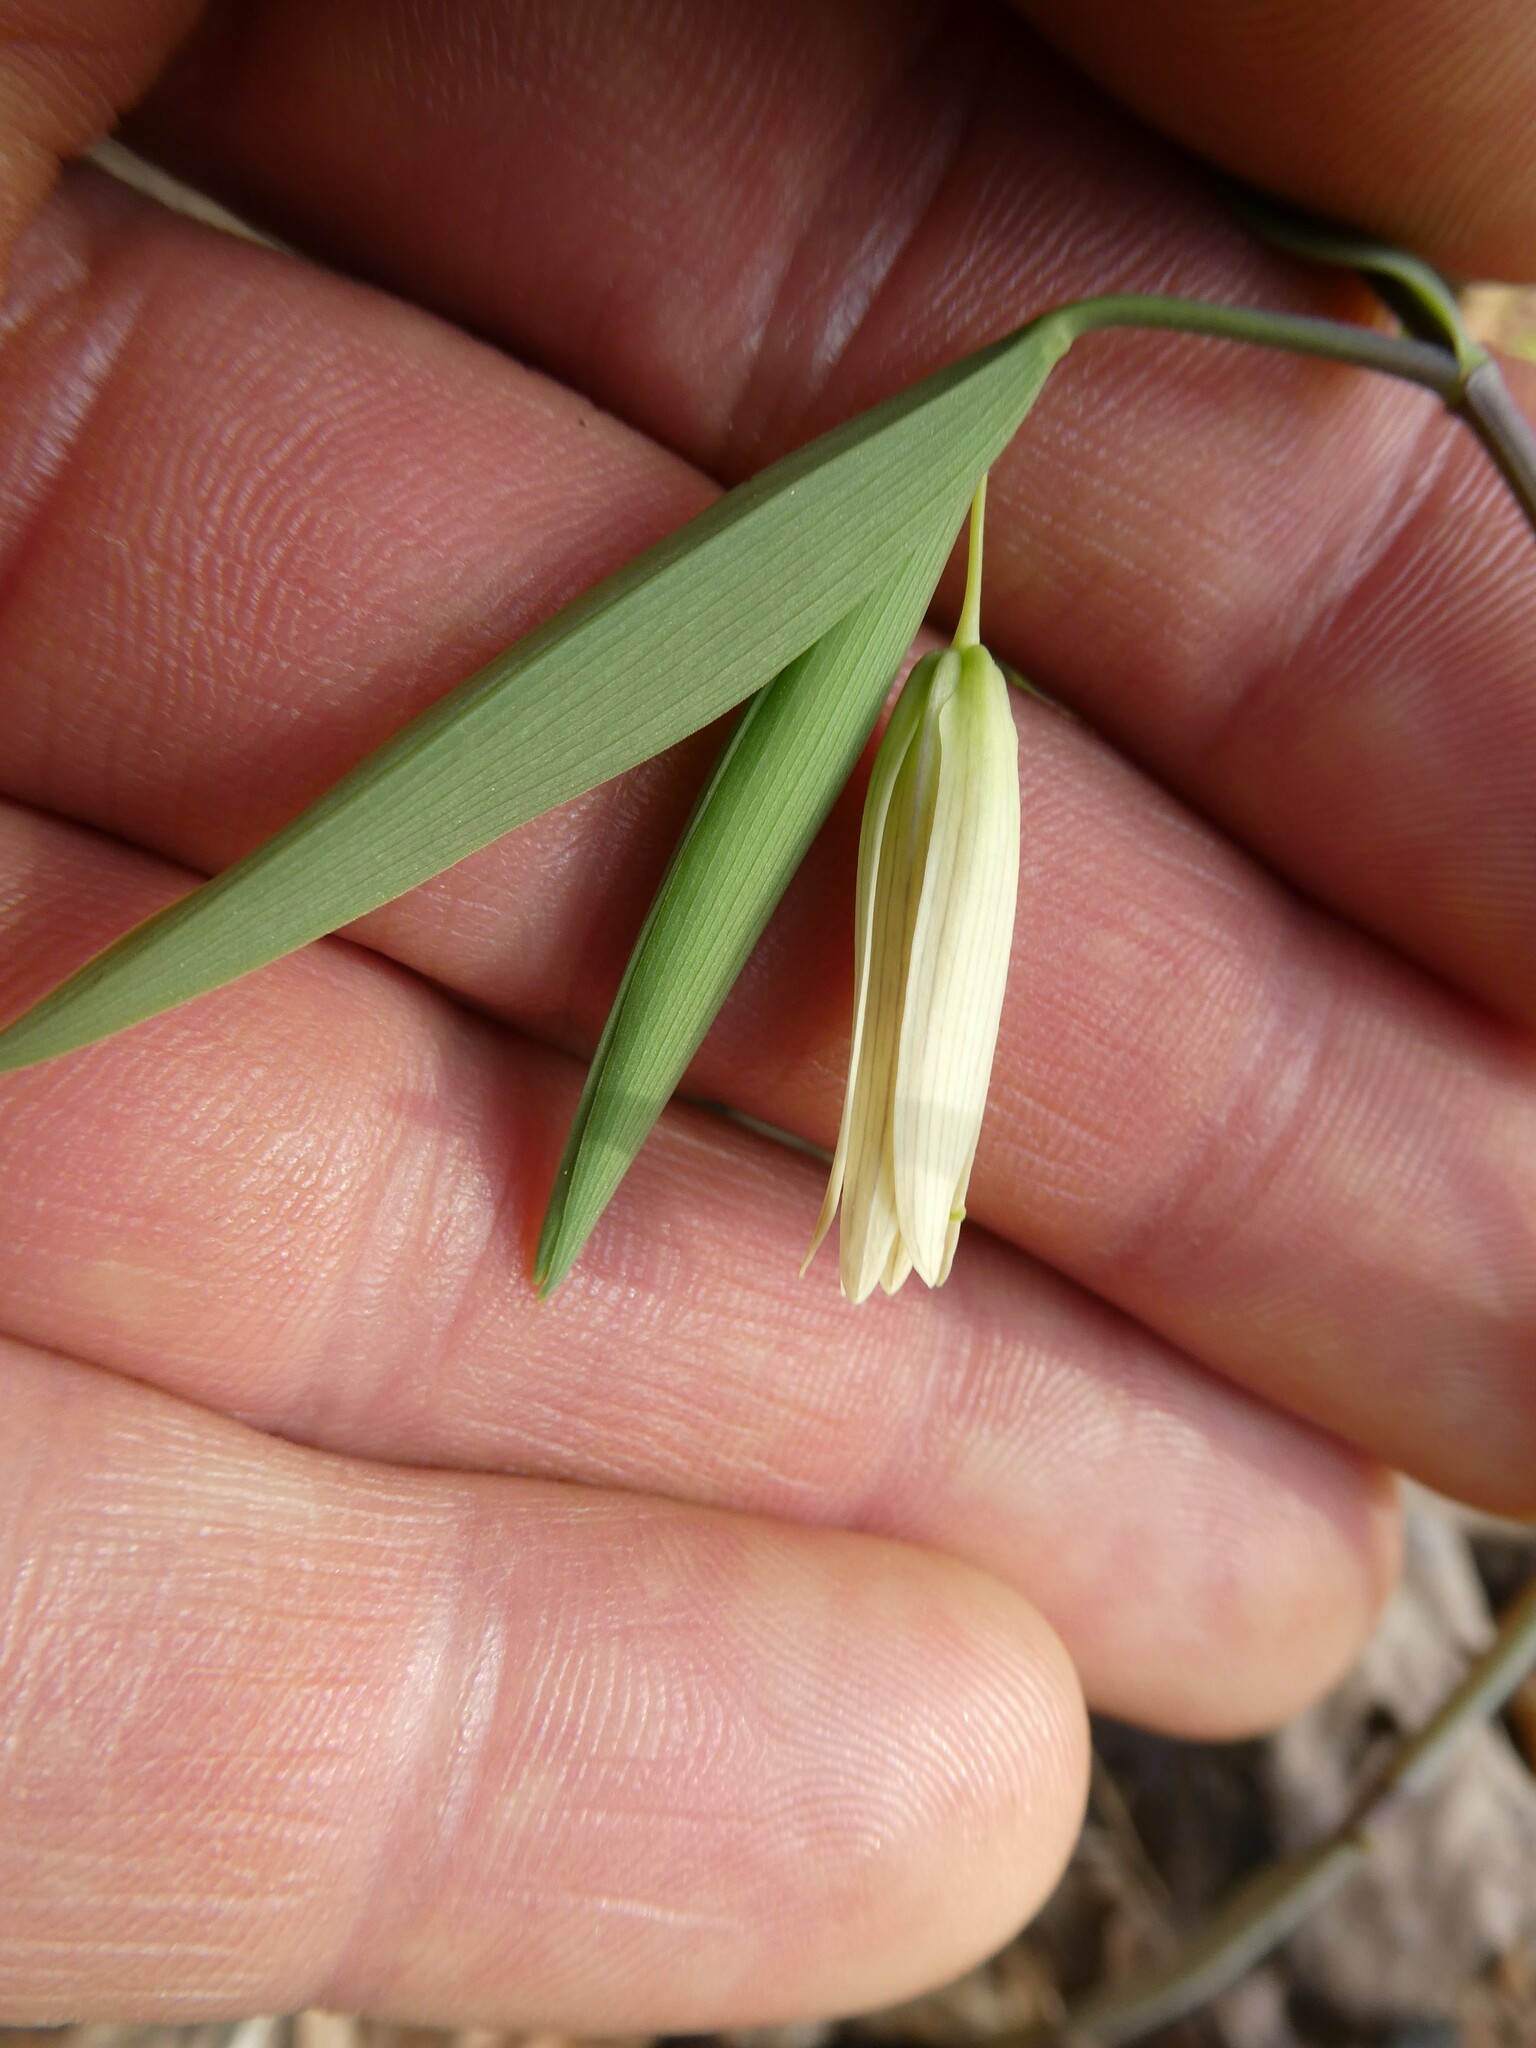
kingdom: Plantae
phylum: Tracheophyta
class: Liliopsida
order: Liliales
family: Colchicaceae
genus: Uvularia
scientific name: Uvularia sessilifolia
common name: Straw-lily
